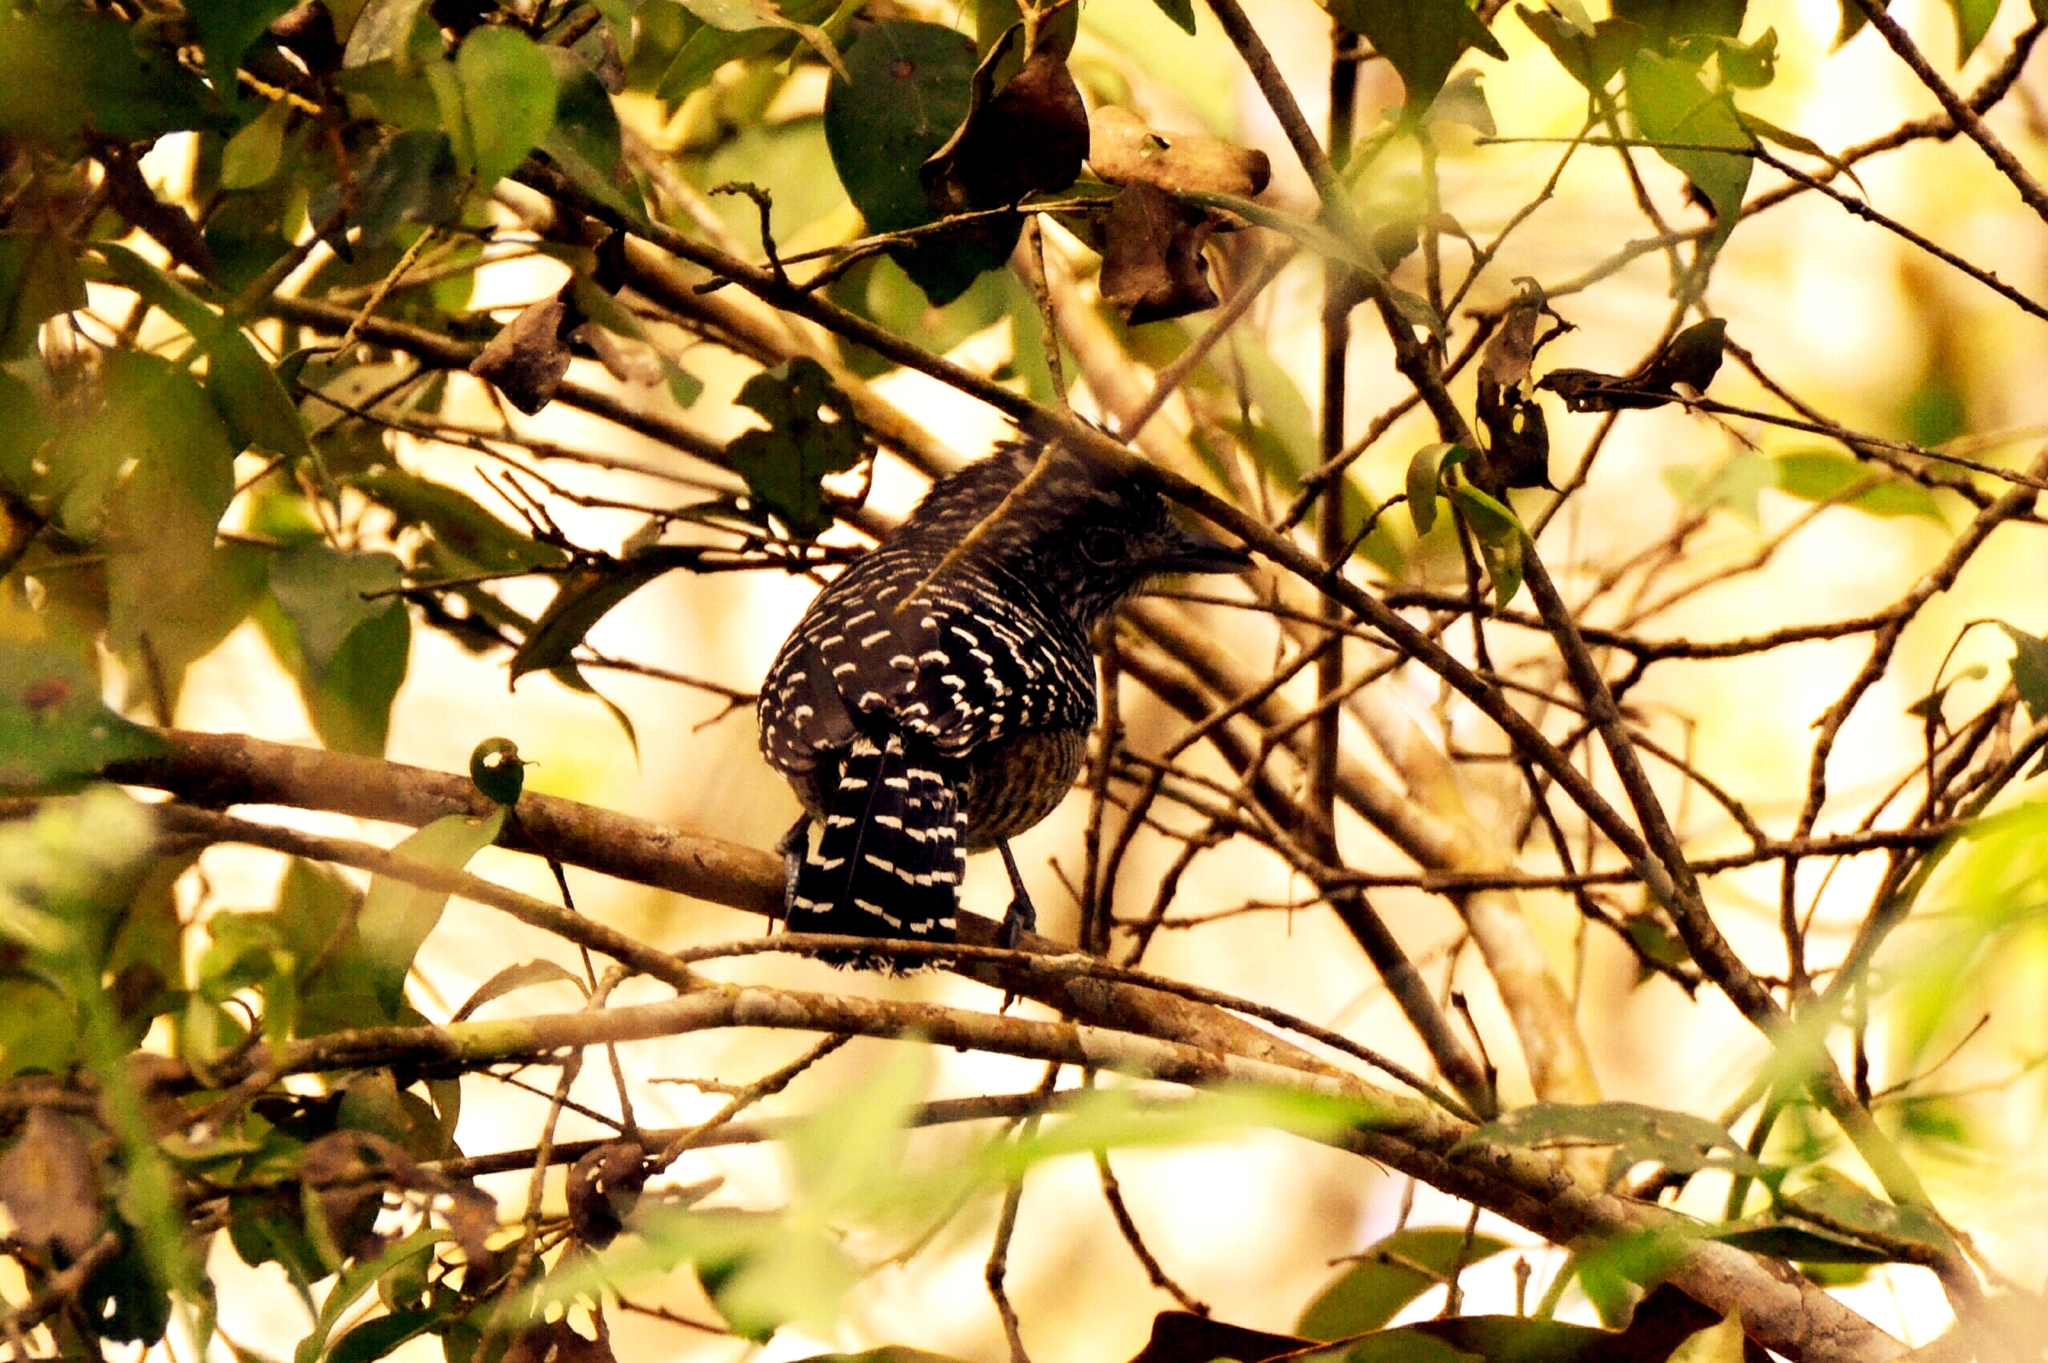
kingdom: Animalia
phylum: Chordata
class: Aves
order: Passeriformes
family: Thamnophilidae
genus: Thamnophilus
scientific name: Thamnophilus doliatus
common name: Barred antshrike
